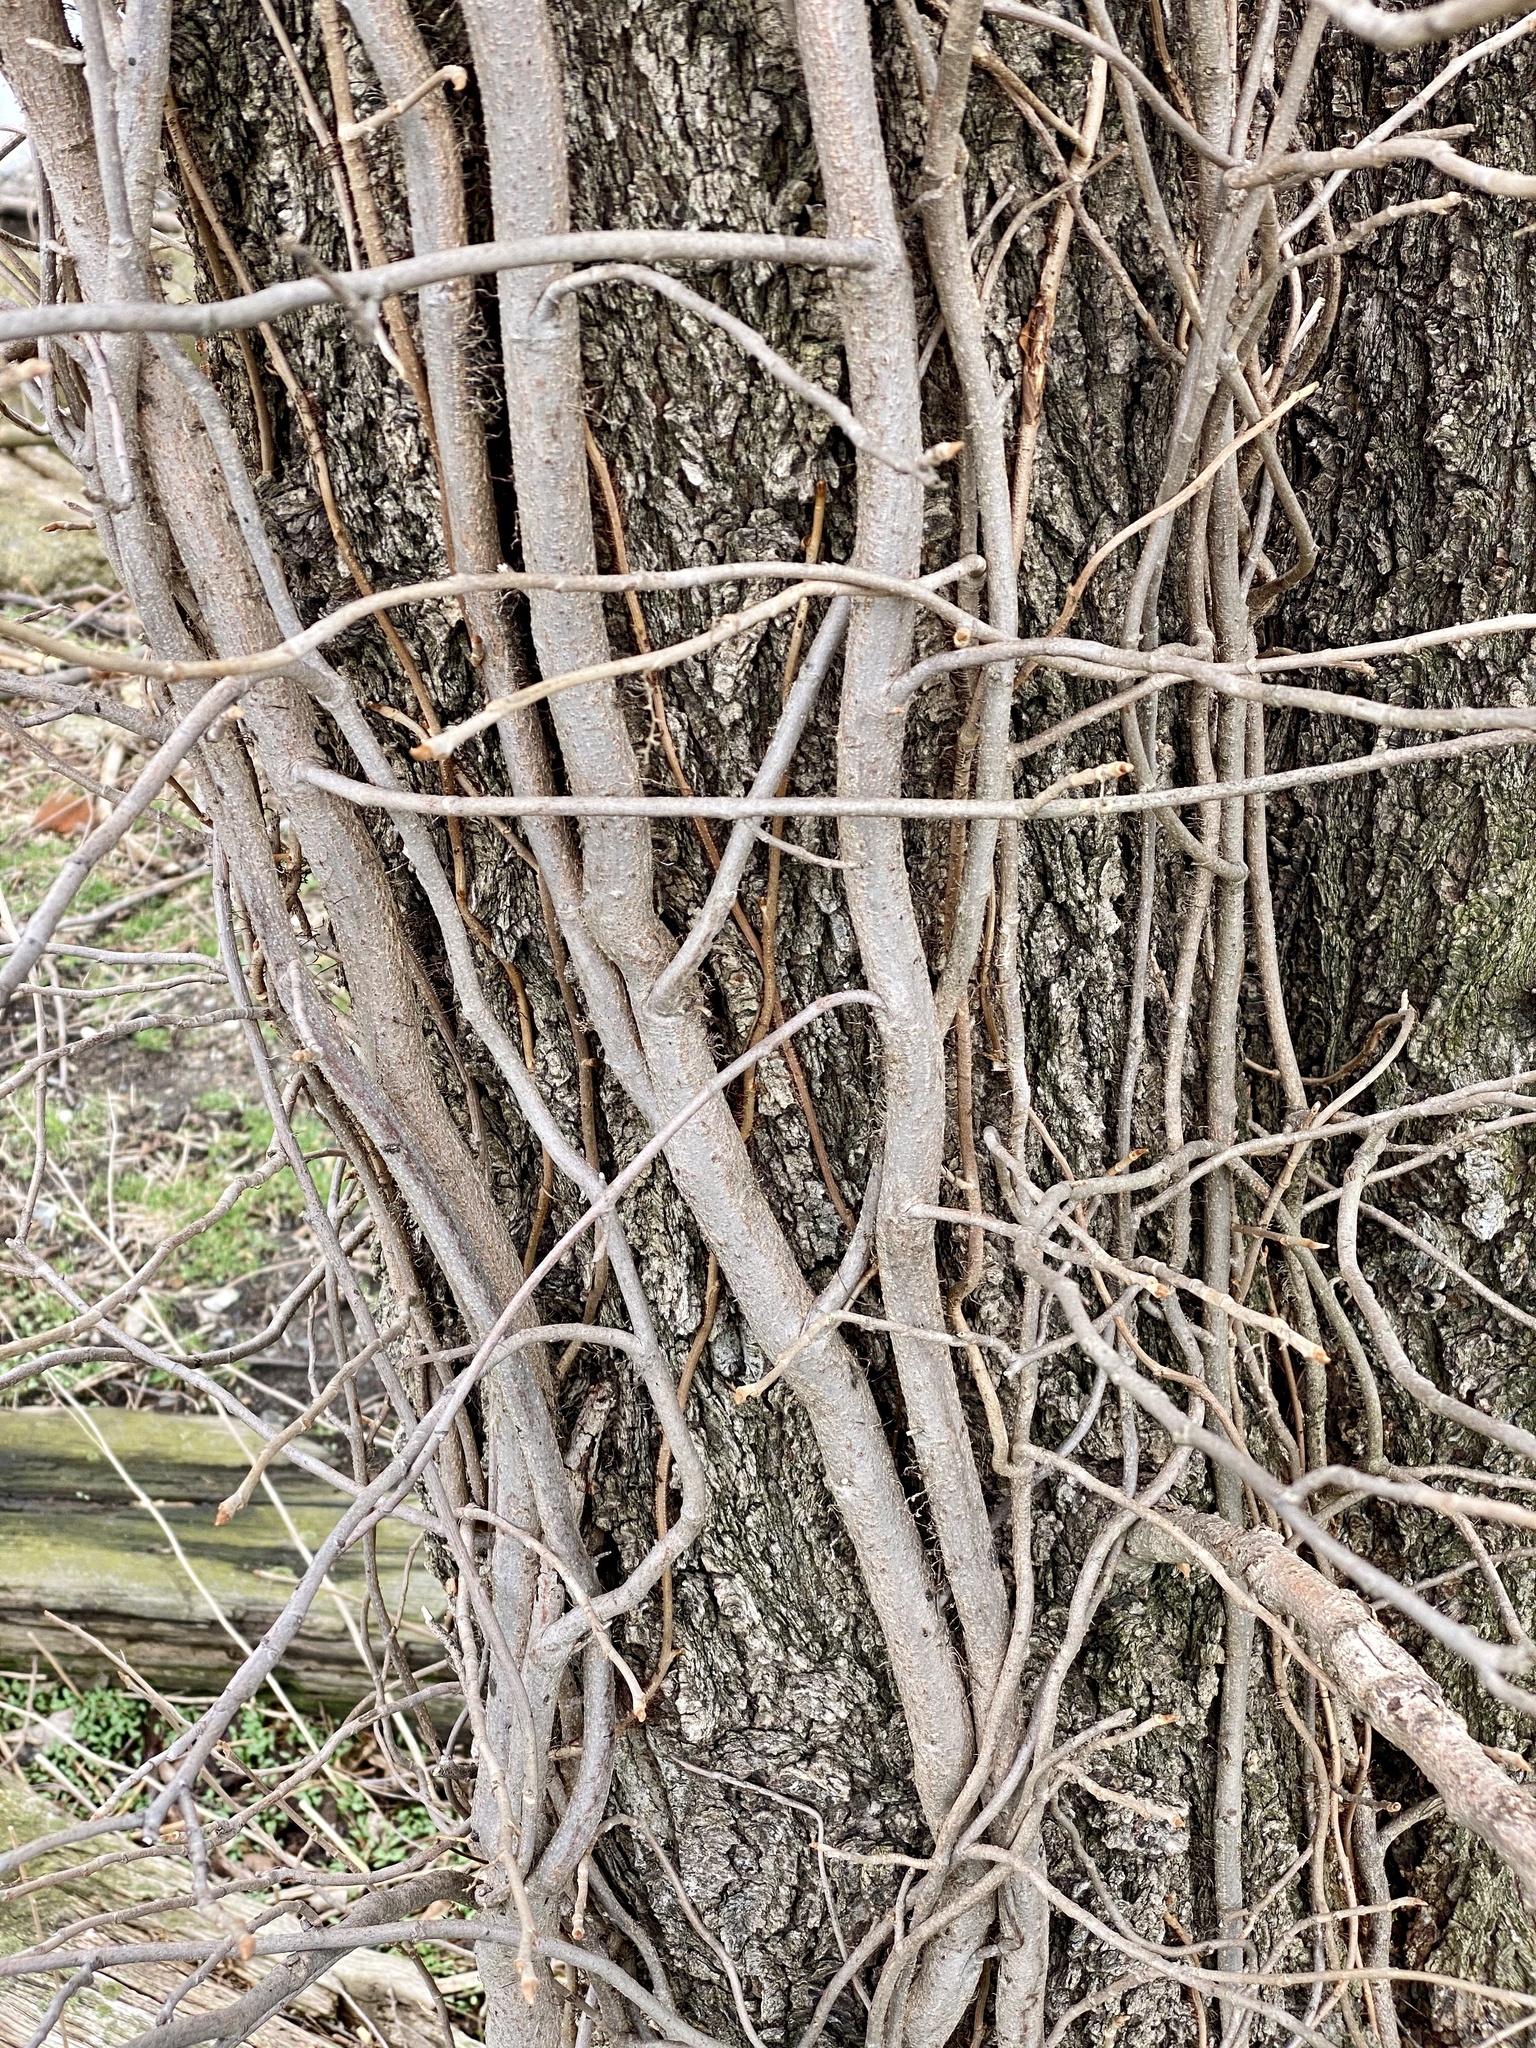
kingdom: Plantae
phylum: Tracheophyta
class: Magnoliopsida
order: Sapindales
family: Anacardiaceae
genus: Toxicodendron
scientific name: Toxicodendron radicans
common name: Poison ivy
